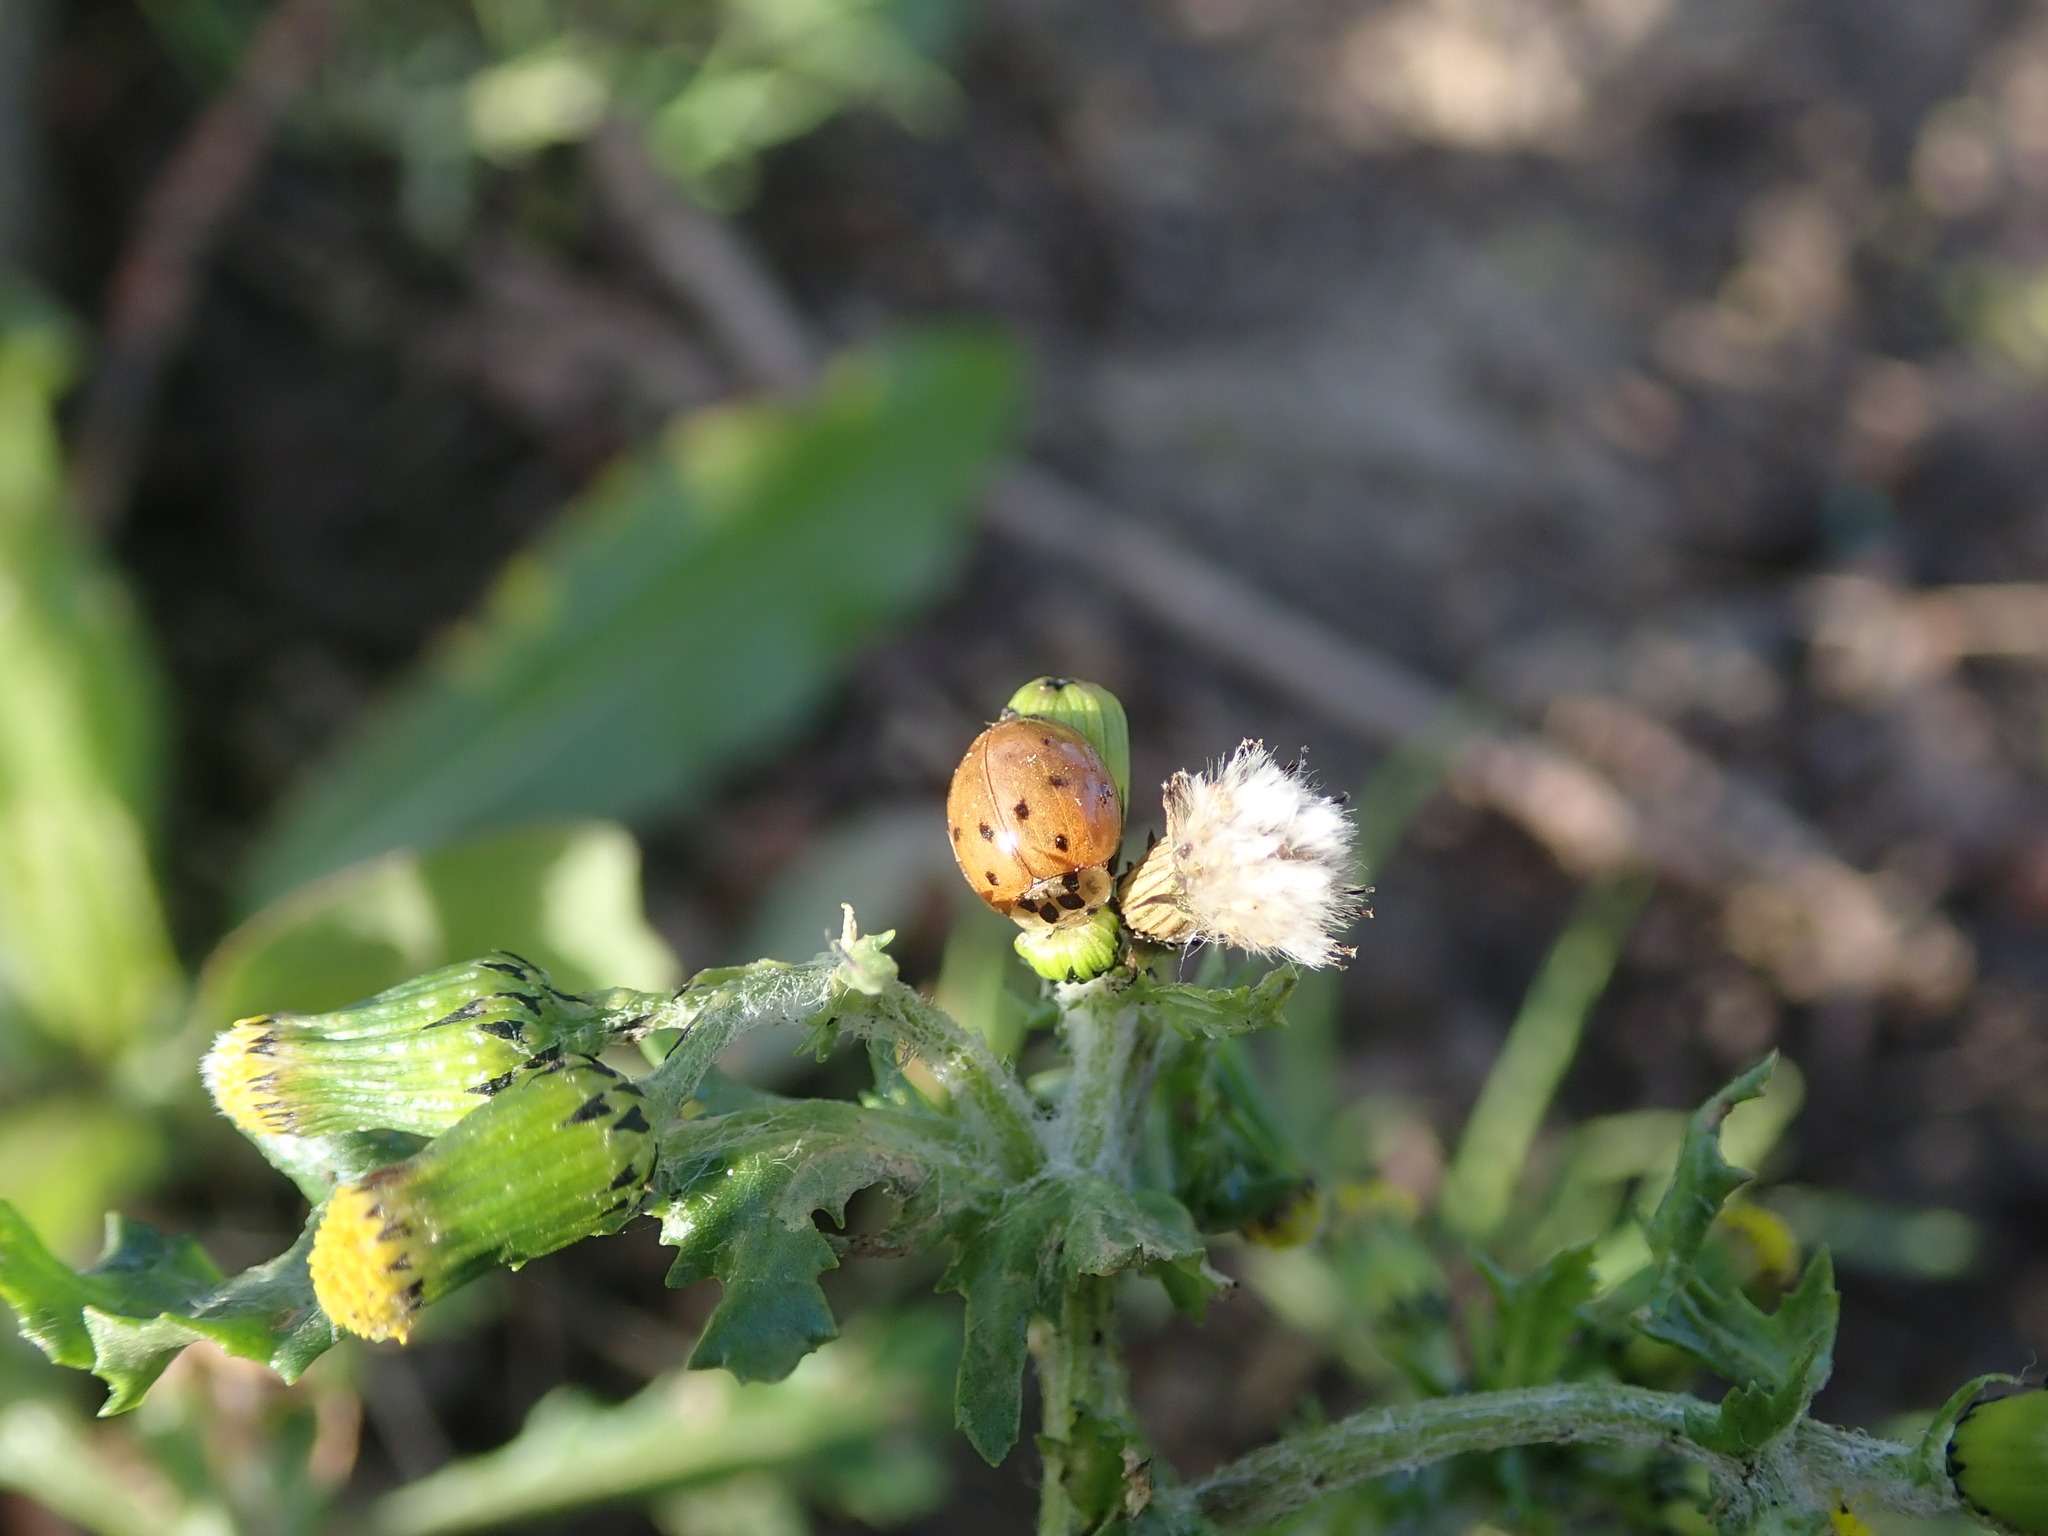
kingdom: Animalia
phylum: Arthropoda
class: Insecta
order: Coleoptera
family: Coccinellidae
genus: Harmonia
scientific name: Harmonia axyridis
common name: Harlequin ladybird
